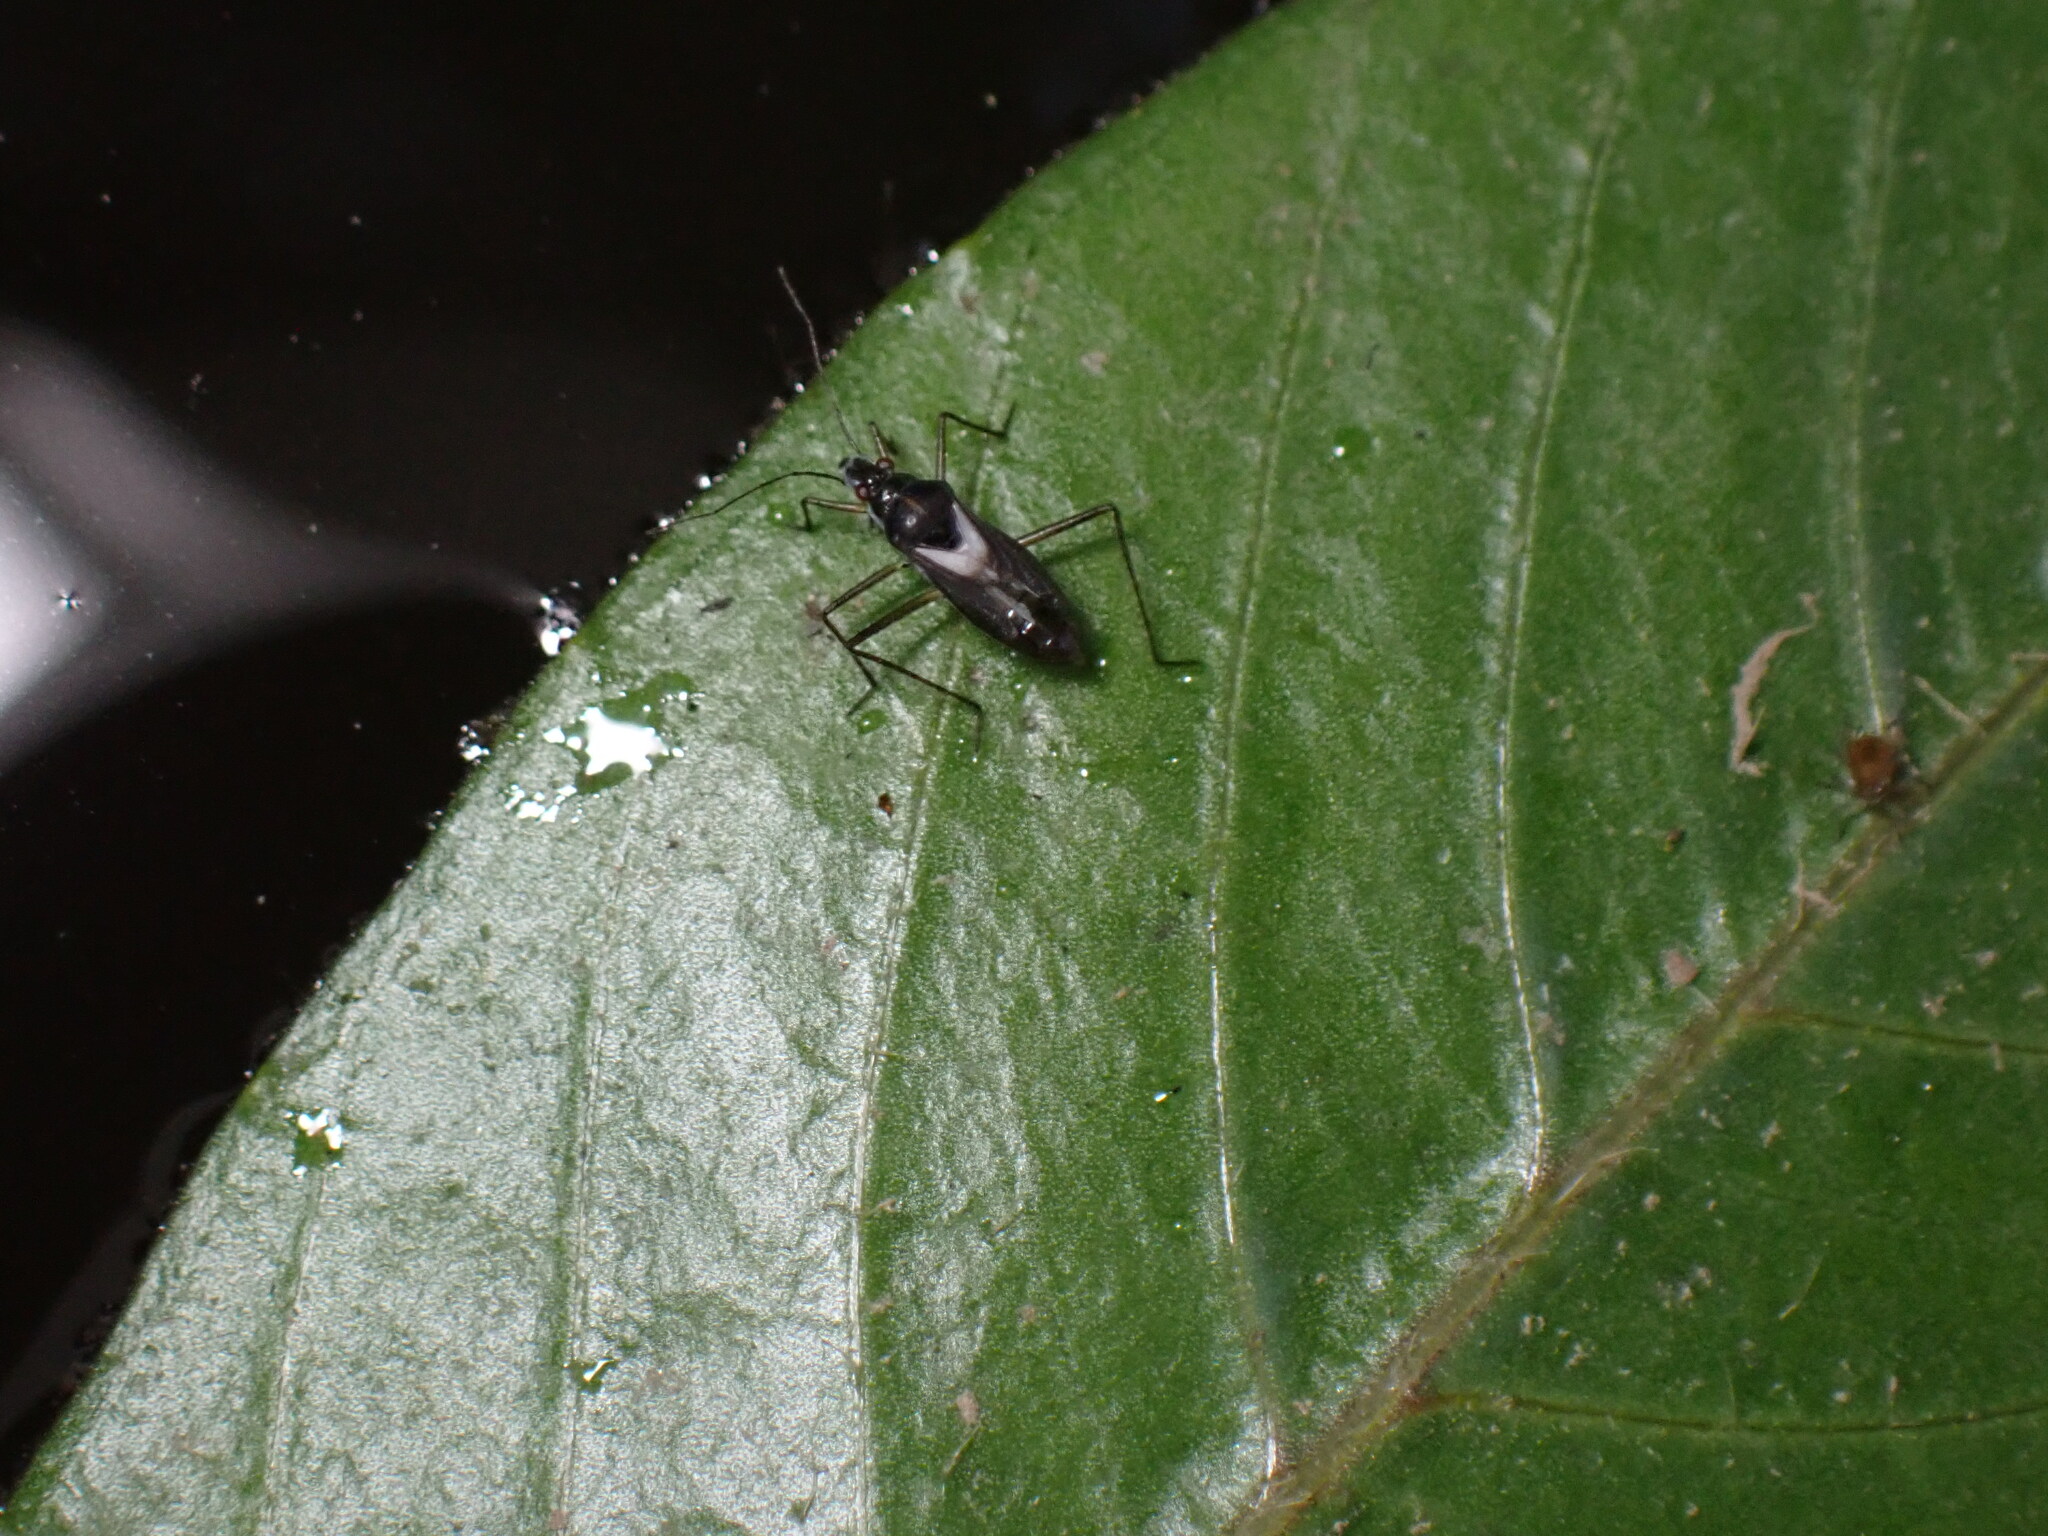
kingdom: Animalia
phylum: Arthropoda
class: Insecta
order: Hemiptera
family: Mesoveliidae
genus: Mesovelia
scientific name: Mesovelia mulsanti
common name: Water treaders
